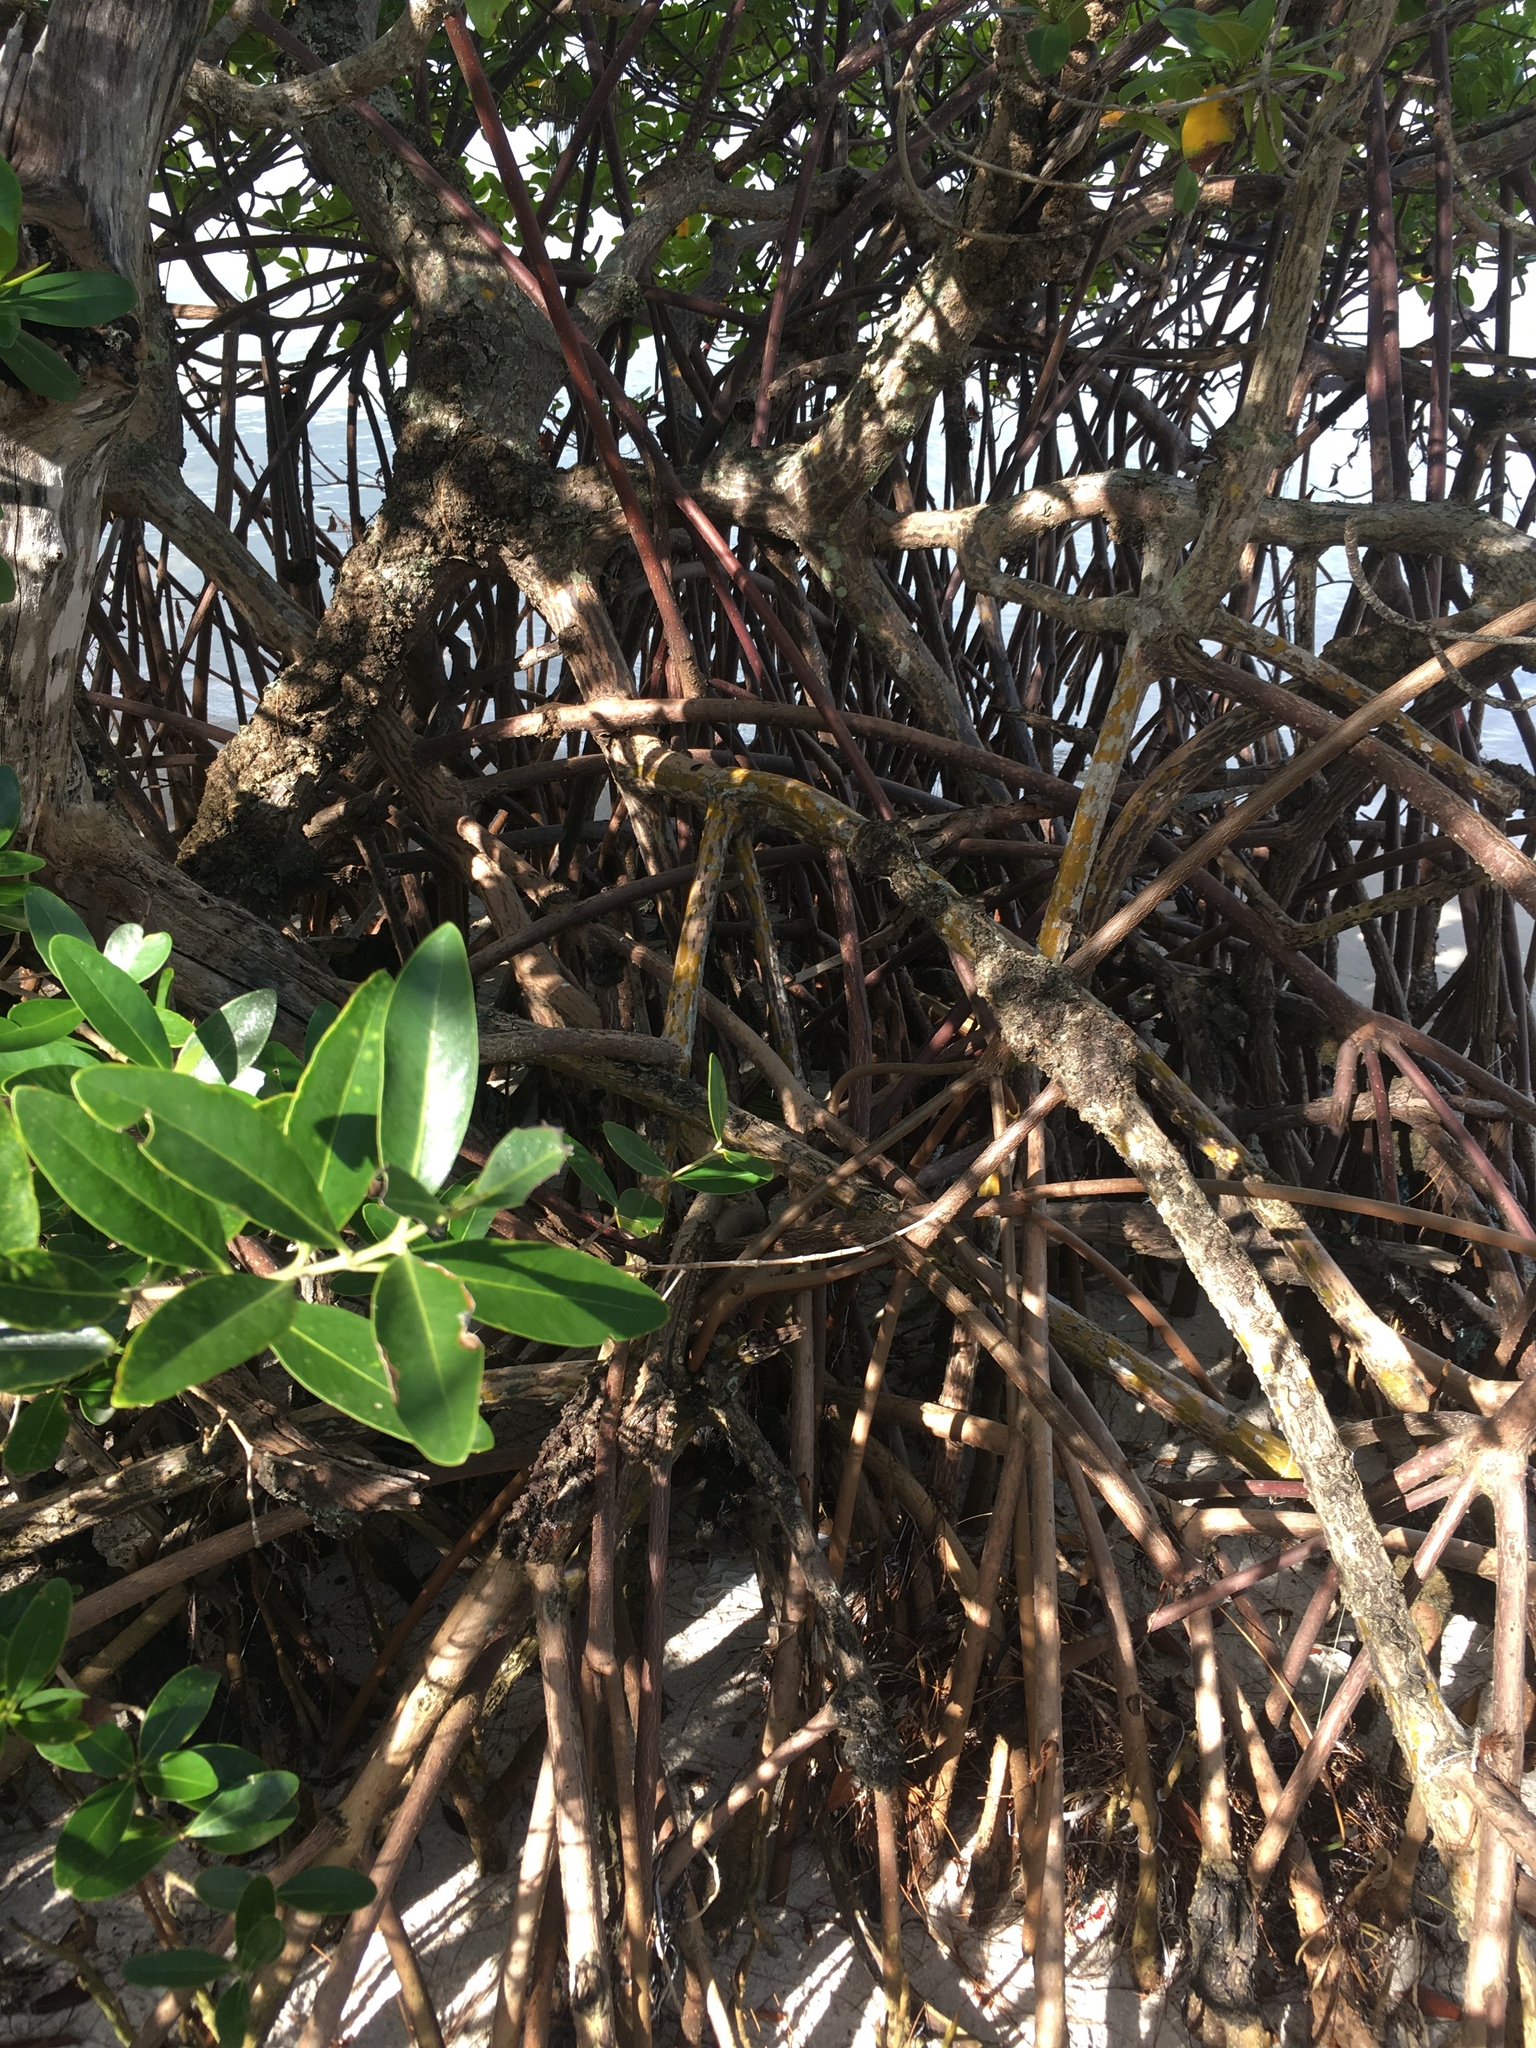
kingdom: Plantae
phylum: Tracheophyta
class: Magnoliopsida
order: Malpighiales
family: Rhizophoraceae
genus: Rhizophora
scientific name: Rhizophora mangle
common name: Red mangrove
